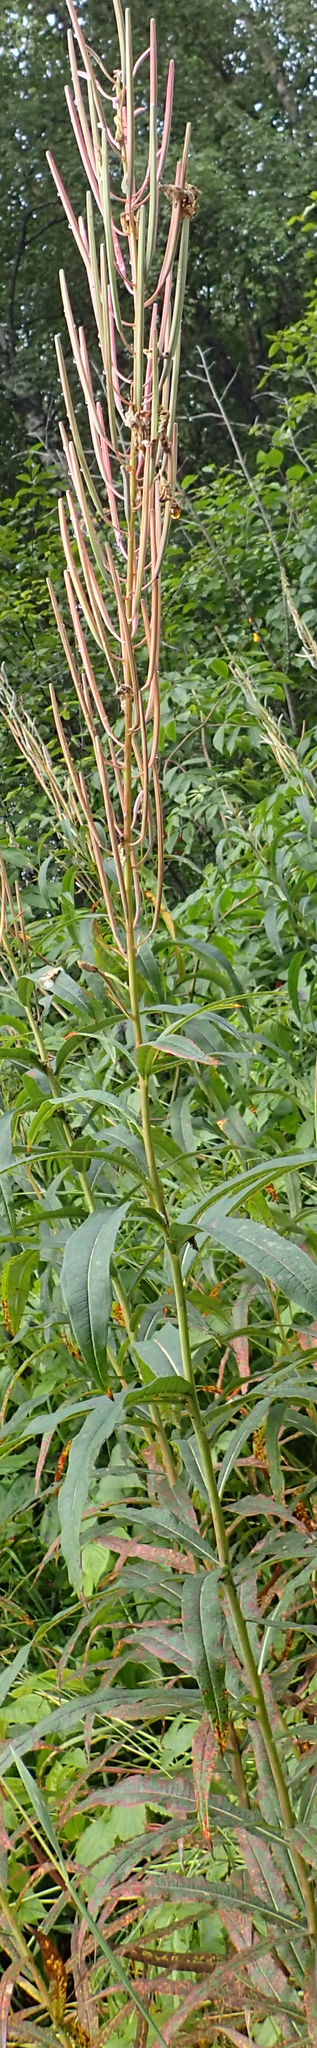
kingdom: Plantae
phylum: Tracheophyta
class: Magnoliopsida
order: Myrtales
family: Onagraceae
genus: Chamaenerion
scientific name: Chamaenerion angustifolium
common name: Fireweed
